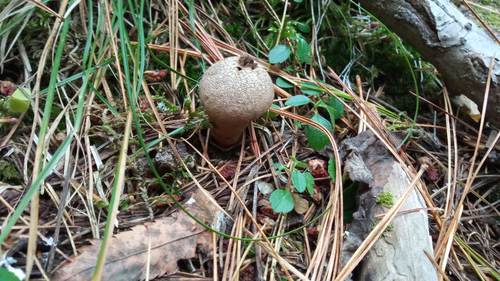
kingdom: Fungi
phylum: Basidiomycota
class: Agaricomycetes
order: Agaricales
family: Lycoperdaceae
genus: Lycoperdon
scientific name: Lycoperdon perlatum
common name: Common puffball
